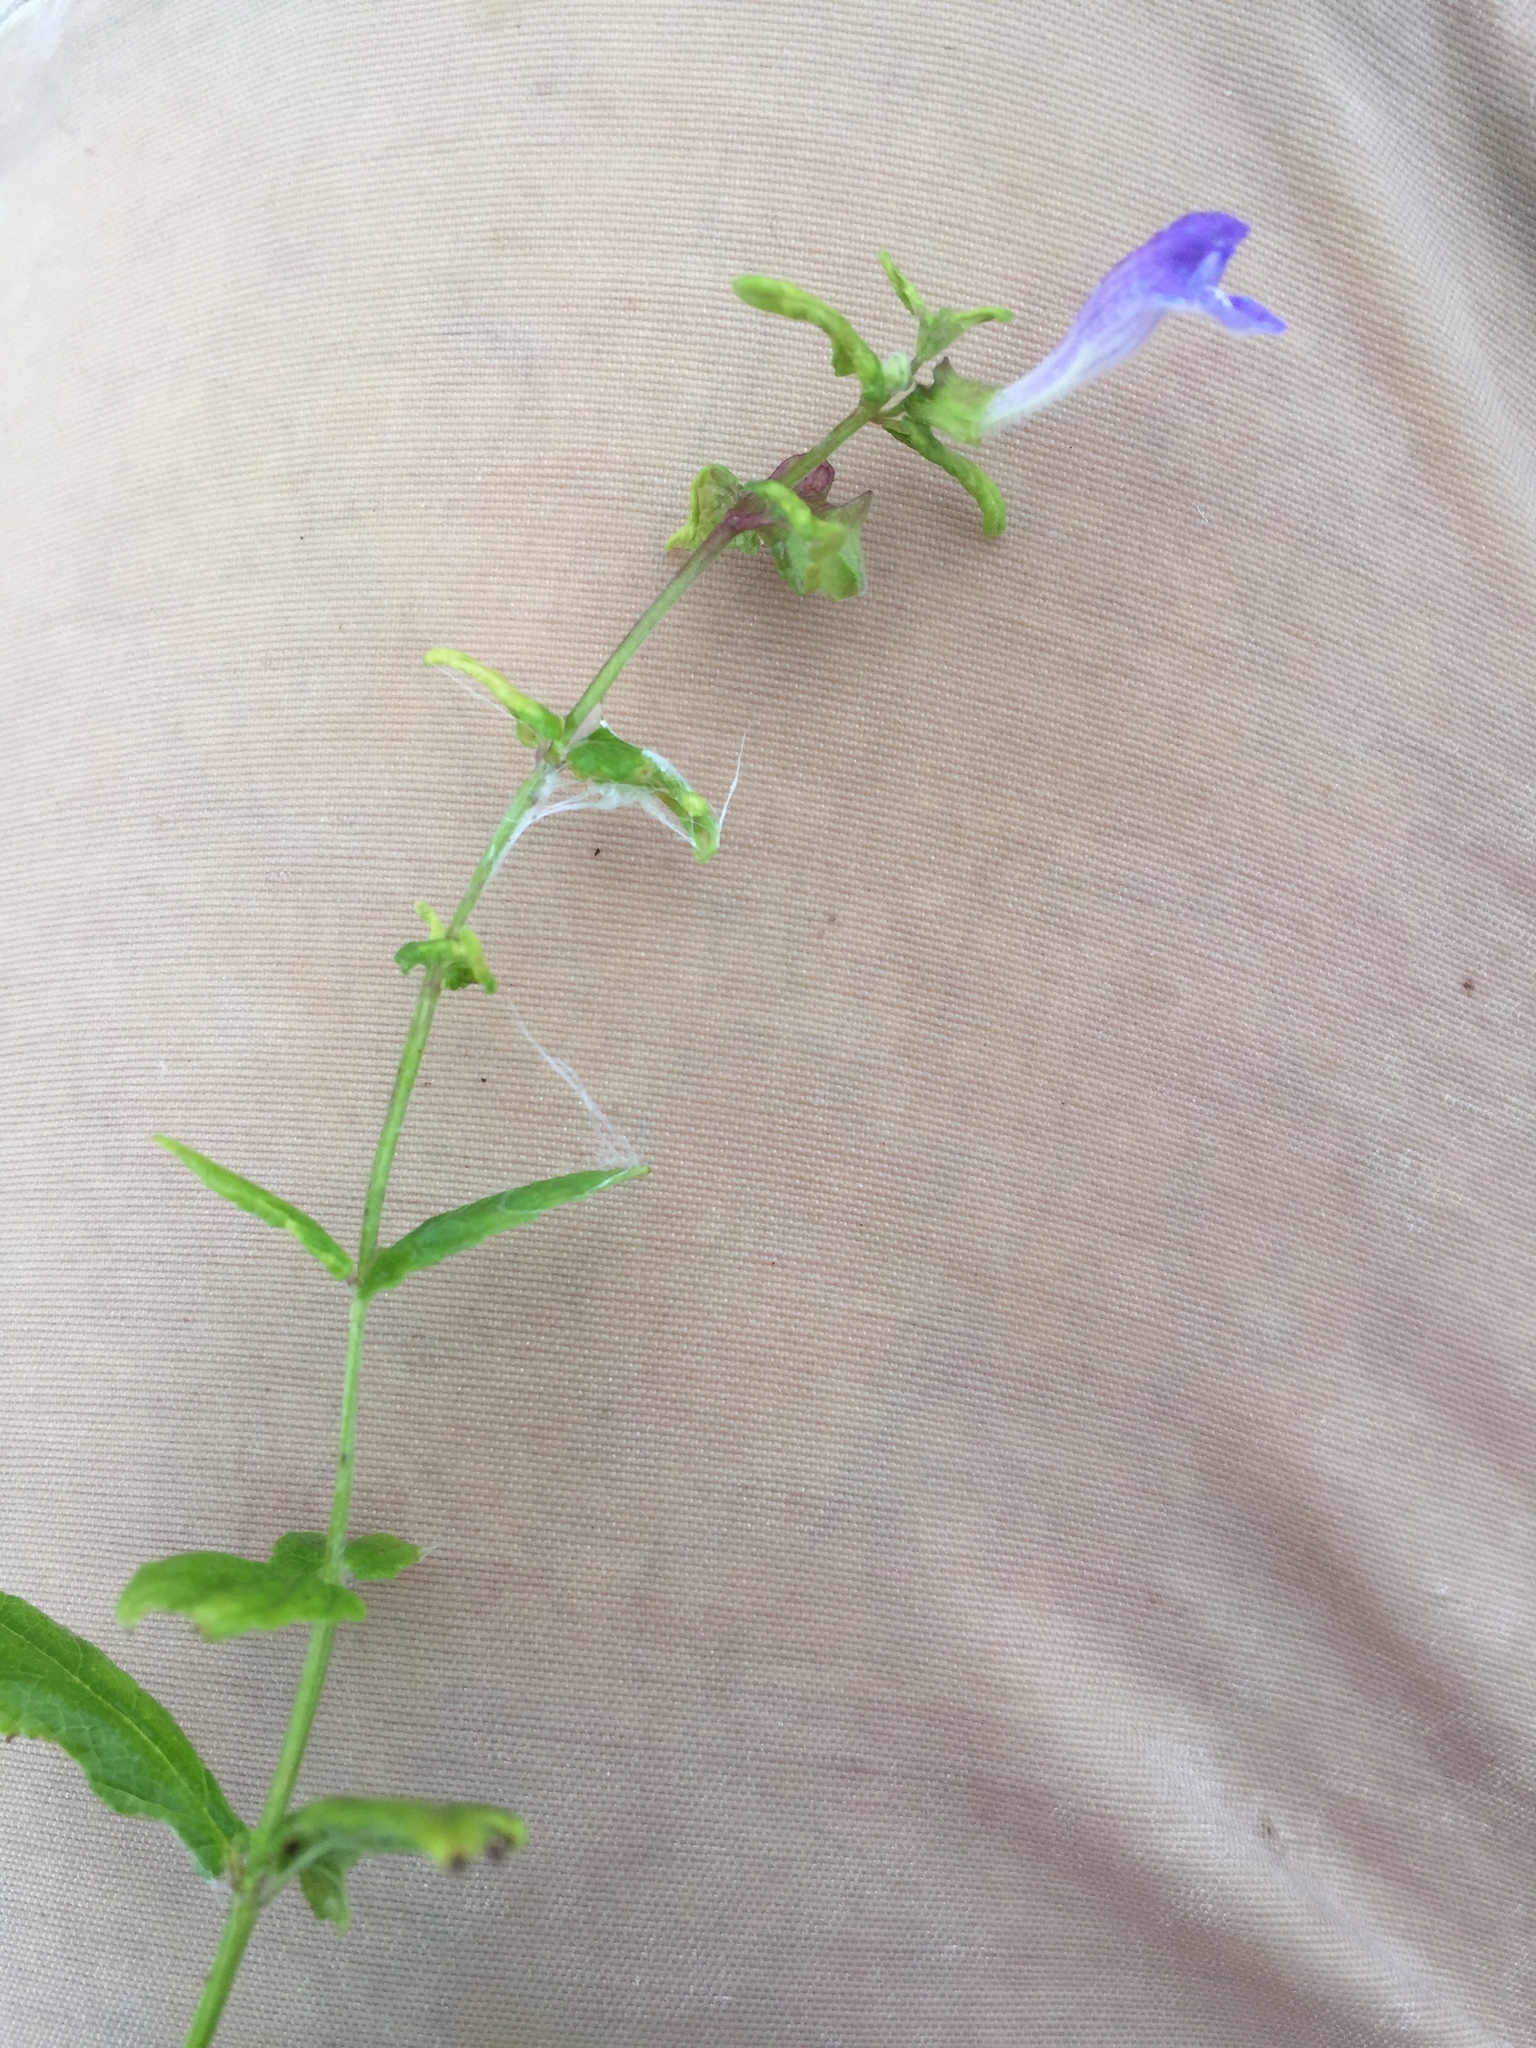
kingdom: Plantae
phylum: Tracheophyta
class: Magnoliopsida
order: Lamiales
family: Lamiaceae
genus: Scutellaria
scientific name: Scutellaria galericulata
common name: Skullcap
